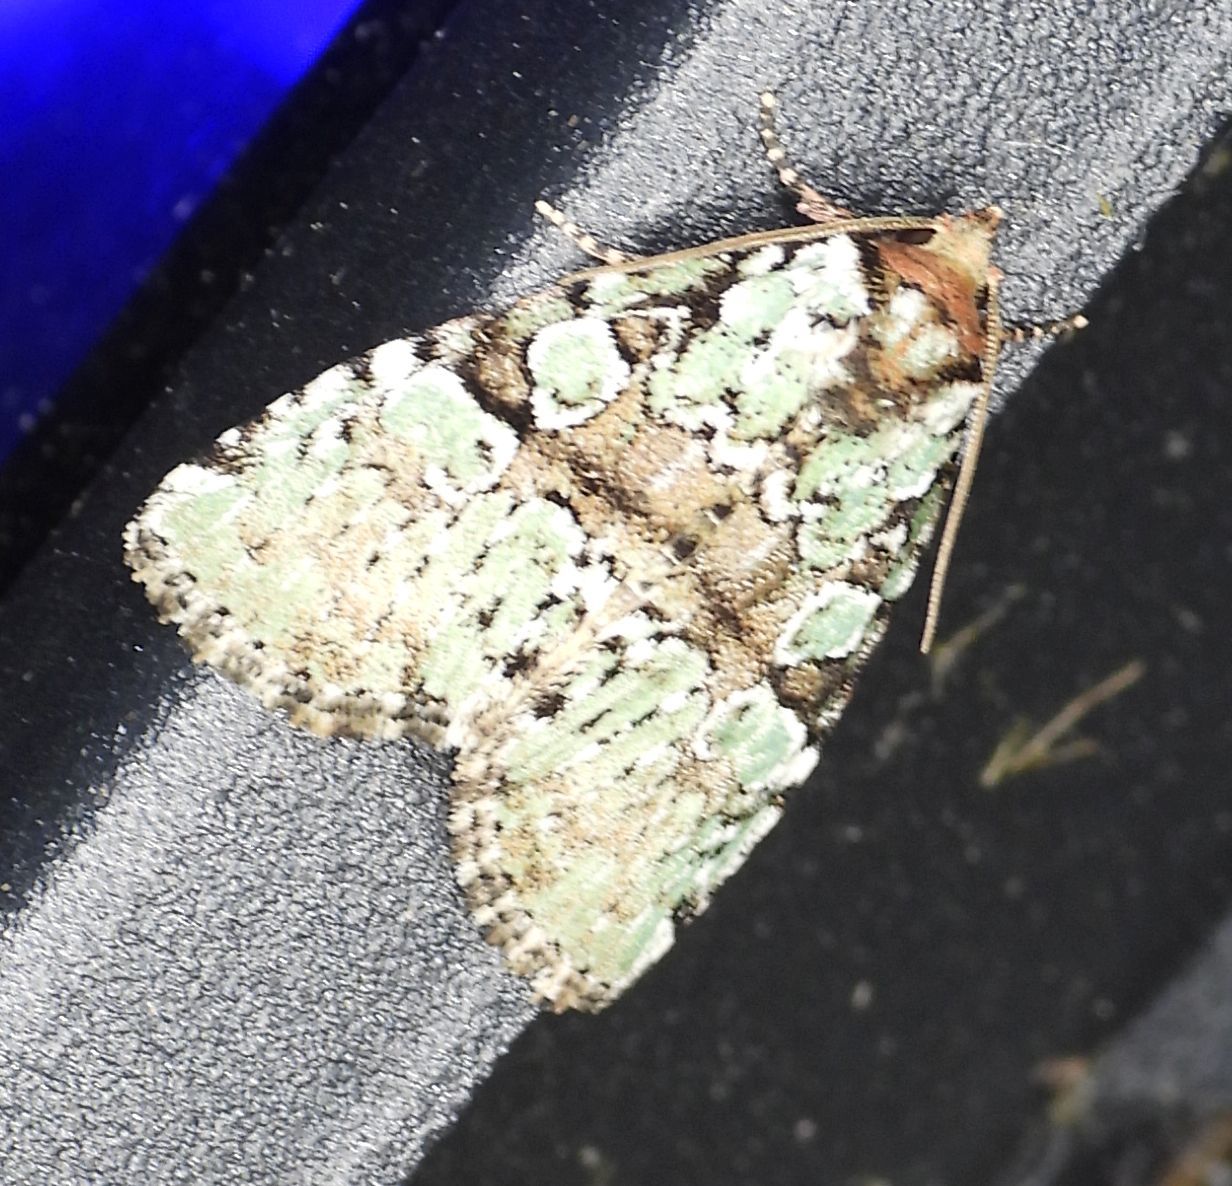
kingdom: Animalia
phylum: Arthropoda
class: Insecta
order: Lepidoptera
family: Noctuidae
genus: Leuconycta
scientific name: Leuconycta lepidula
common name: Marbled-green leuconycta moth
